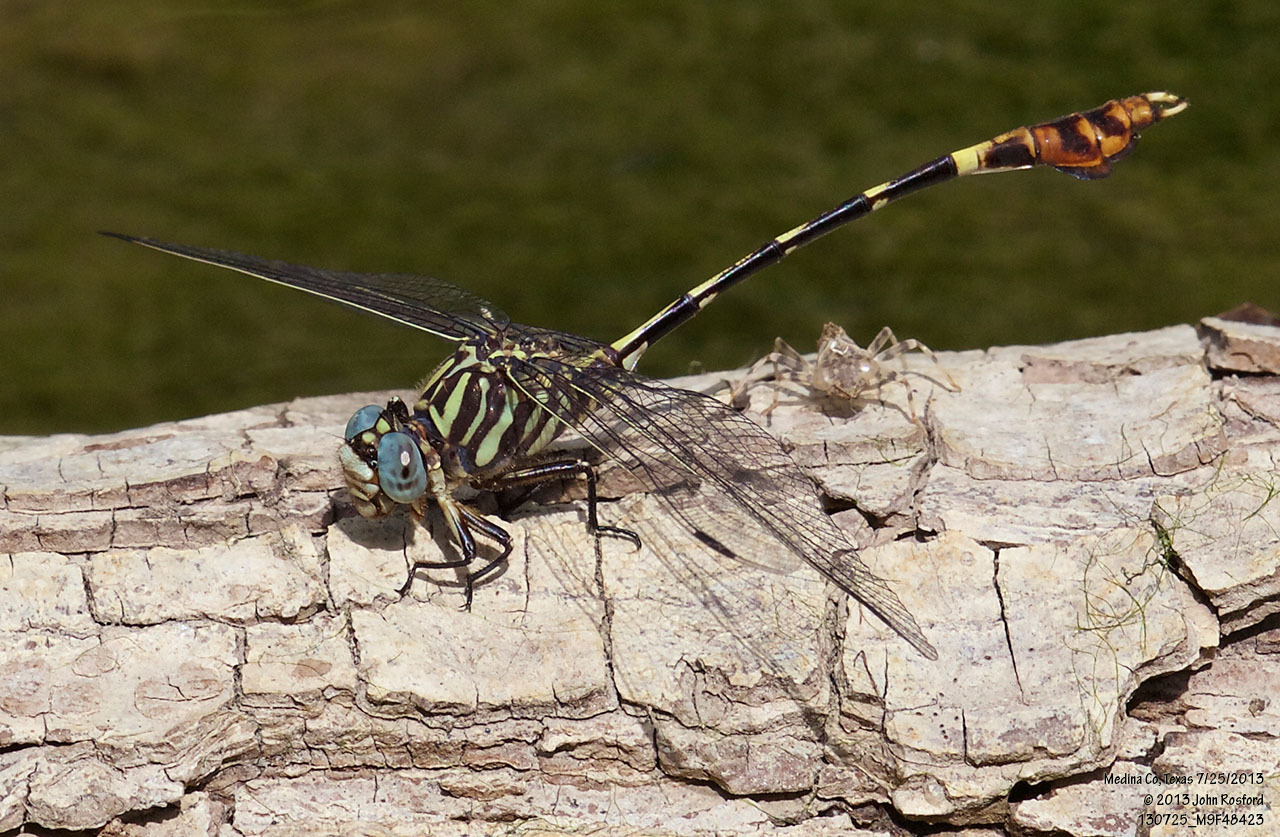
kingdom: Animalia
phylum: Arthropoda
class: Insecta
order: Odonata
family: Gomphidae
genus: Phyllogomphoides
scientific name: Phyllogomphoides albrighti
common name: Five-striped leaftail
